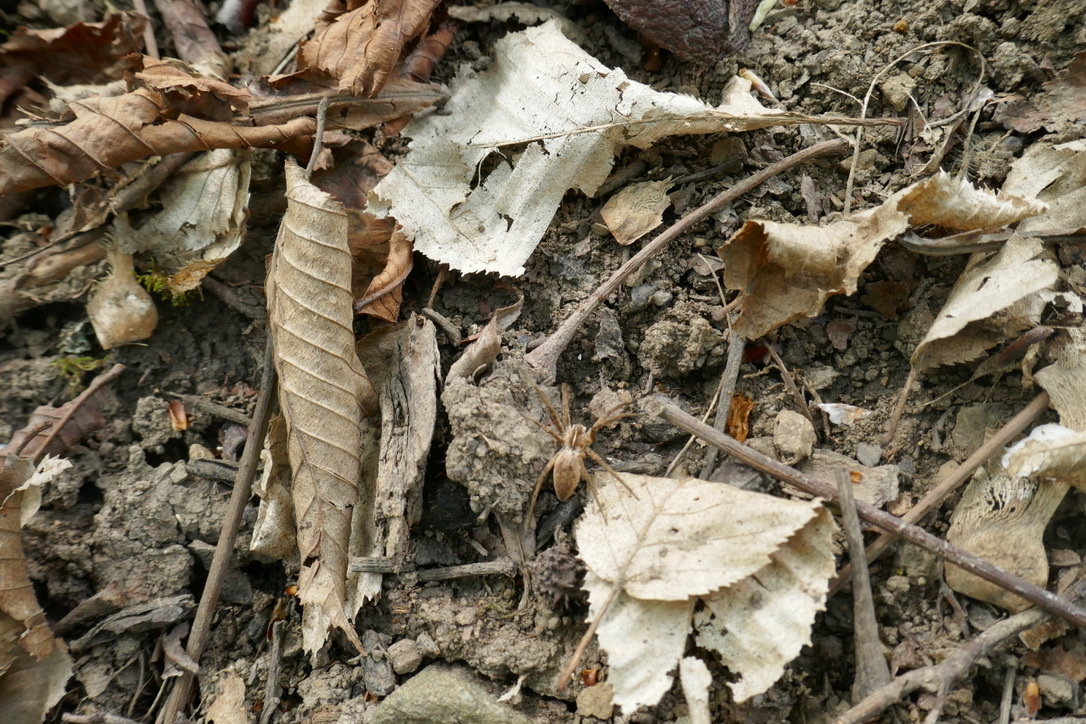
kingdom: Animalia
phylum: Arthropoda
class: Arachnida
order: Araneae
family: Pisauridae
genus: Pisaura
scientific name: Pisaura mirabilis
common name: Tent spider
